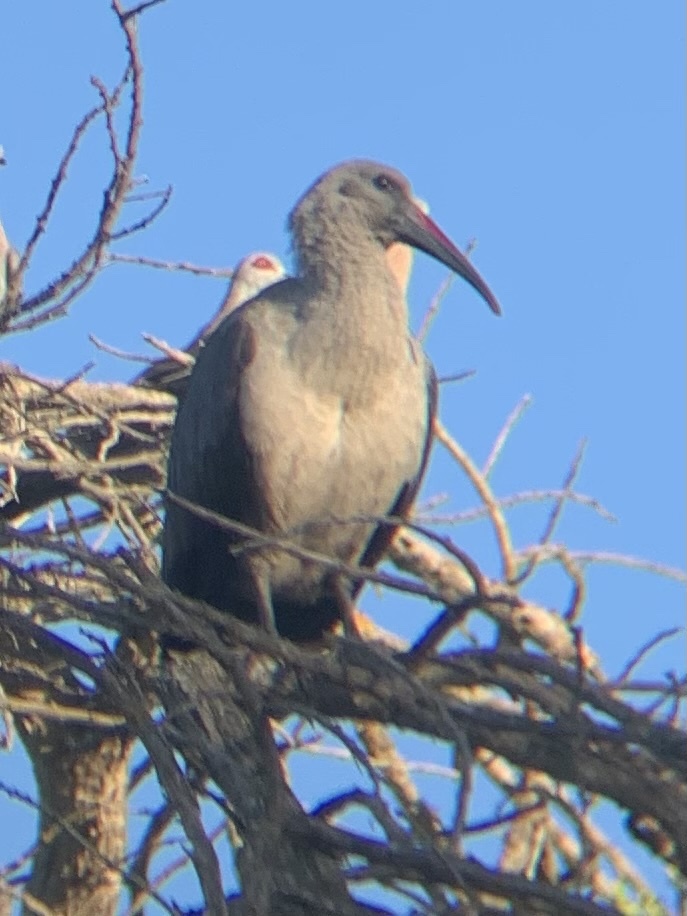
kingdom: Animalia
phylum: Chordata
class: Aves
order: Pelecaniformes
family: Threskiornithidae
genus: Bostrychia
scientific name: Bostrychia hagedash
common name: Hadada ibis
